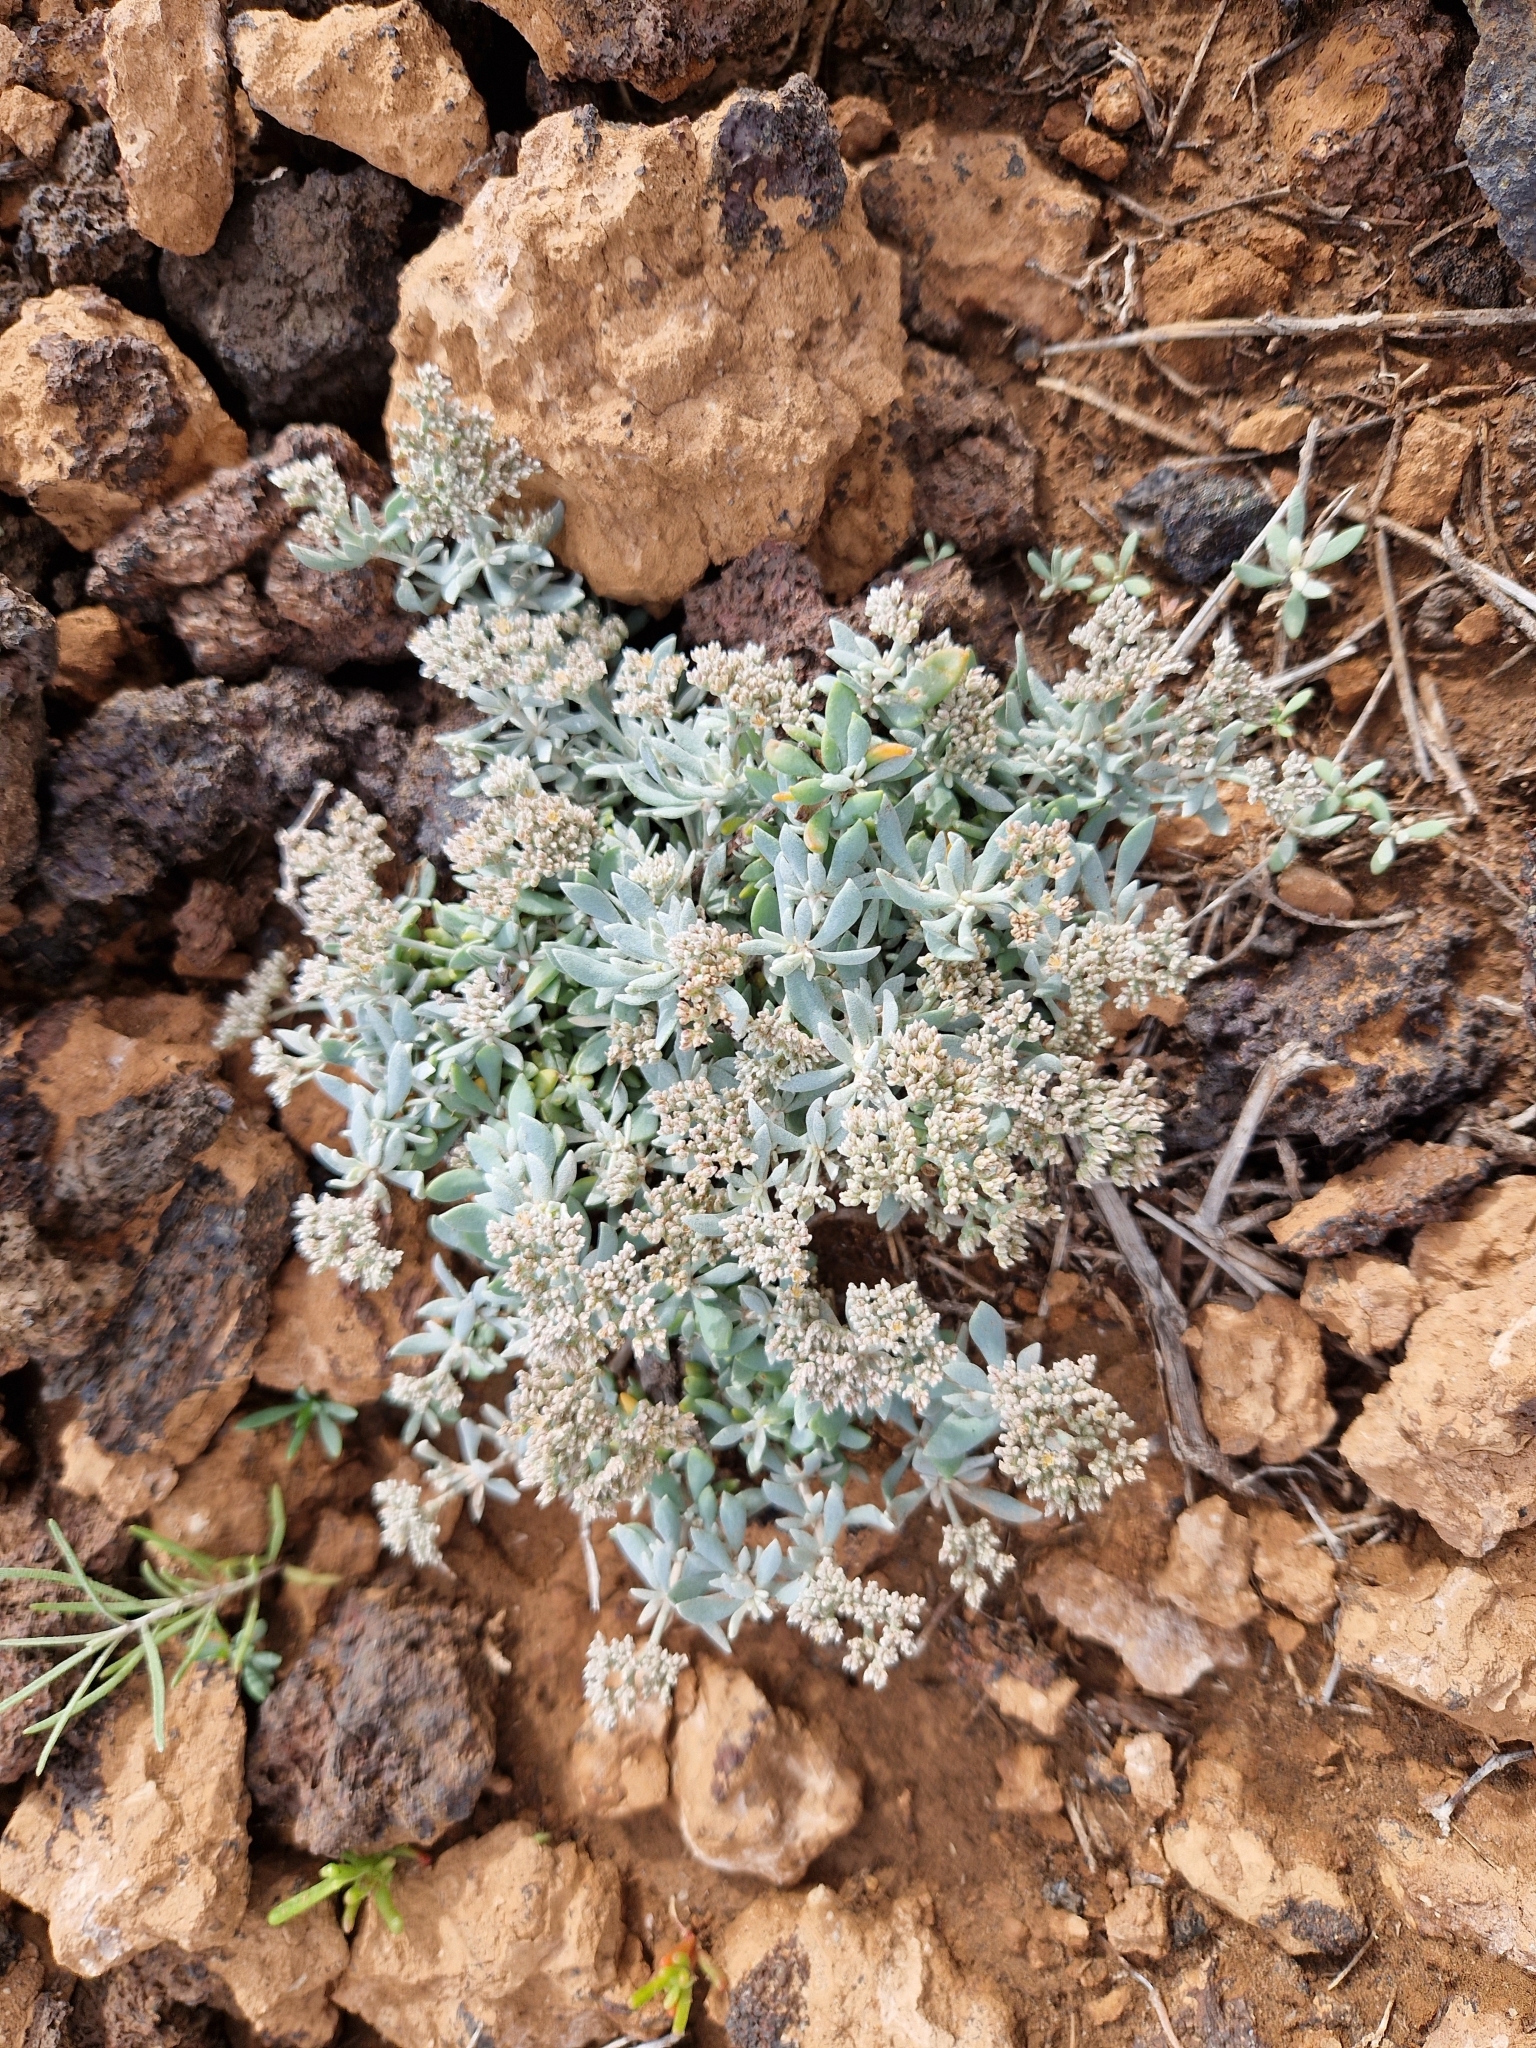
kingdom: Plantae
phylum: Tracheophyta
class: Magnoliopsida
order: Caryophyllales
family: Caryophyllaceae
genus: Polycarpaea
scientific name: Polycarpaea nivea
